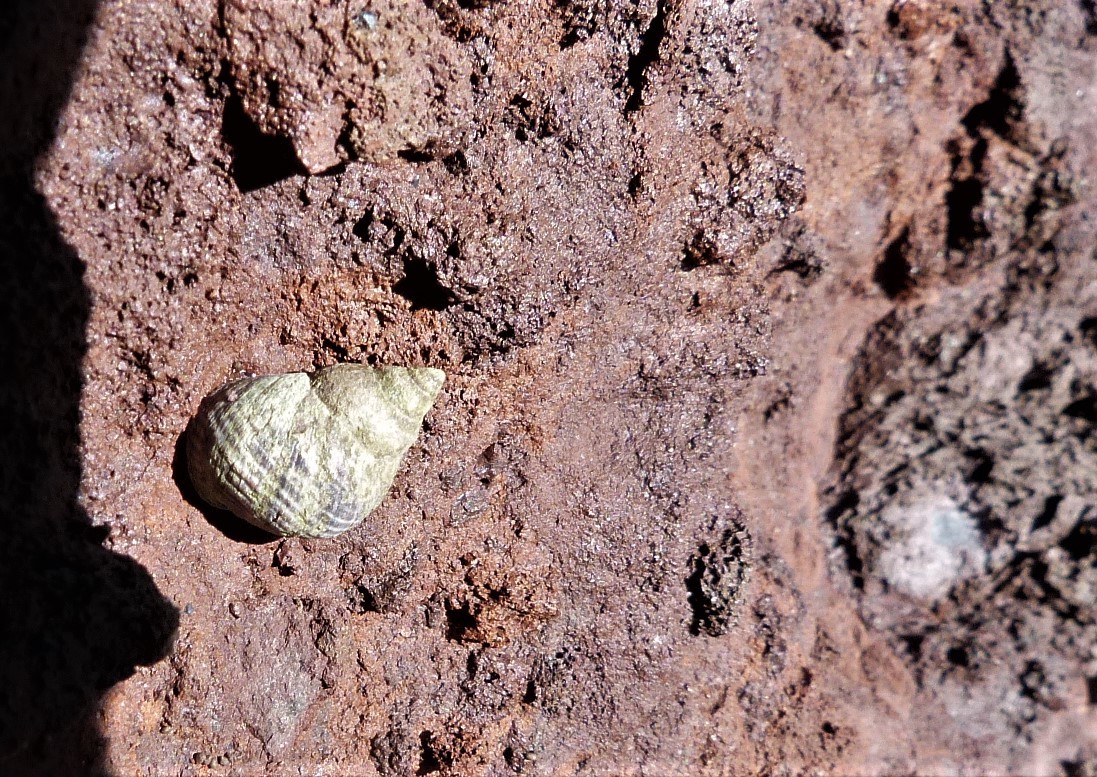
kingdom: Animalia
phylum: Mollusca
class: Gastropoda
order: Littorinimorpha
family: Littorinidae
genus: Austrolittorina
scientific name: Austrolittorina cincta
